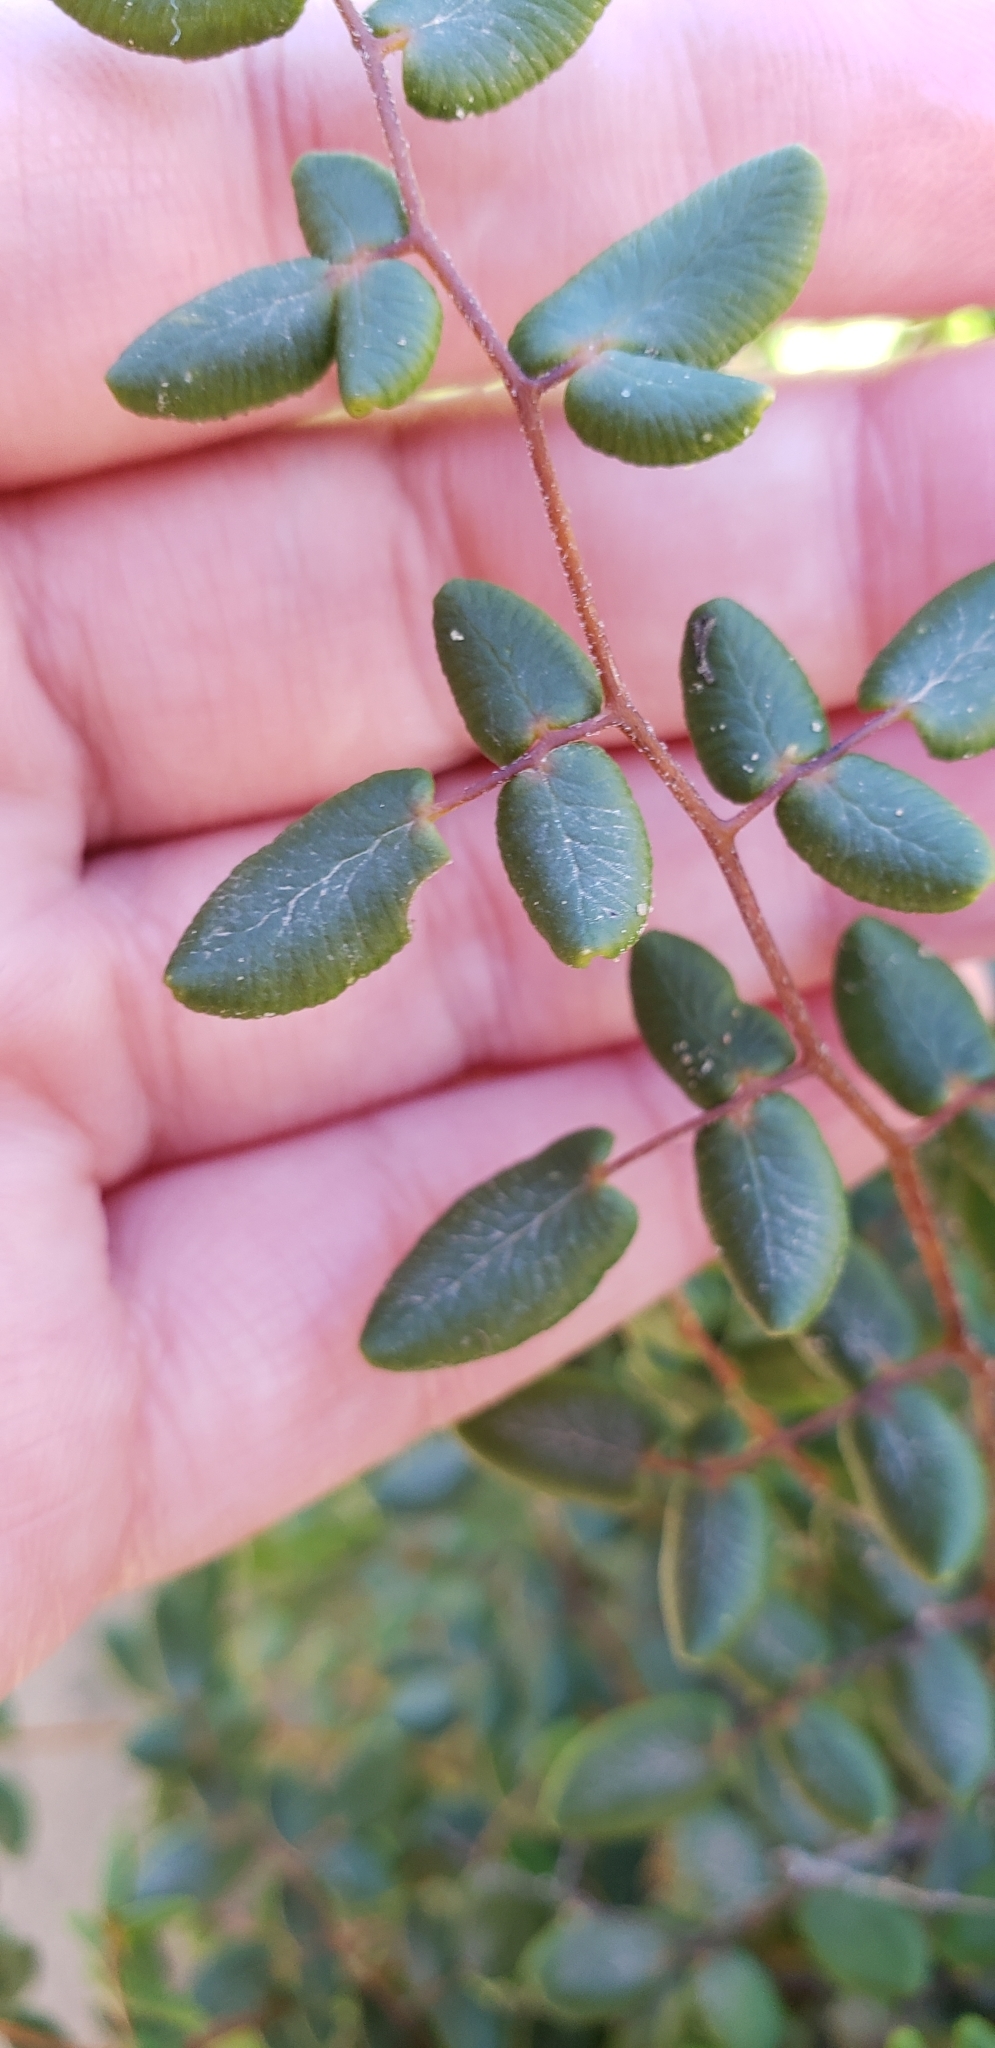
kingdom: Plantae
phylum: Tracheophyta
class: Polypodiopsida
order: Polypodiales
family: Pteridaceae
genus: Pellaea
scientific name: Pellaea andromedifolia
